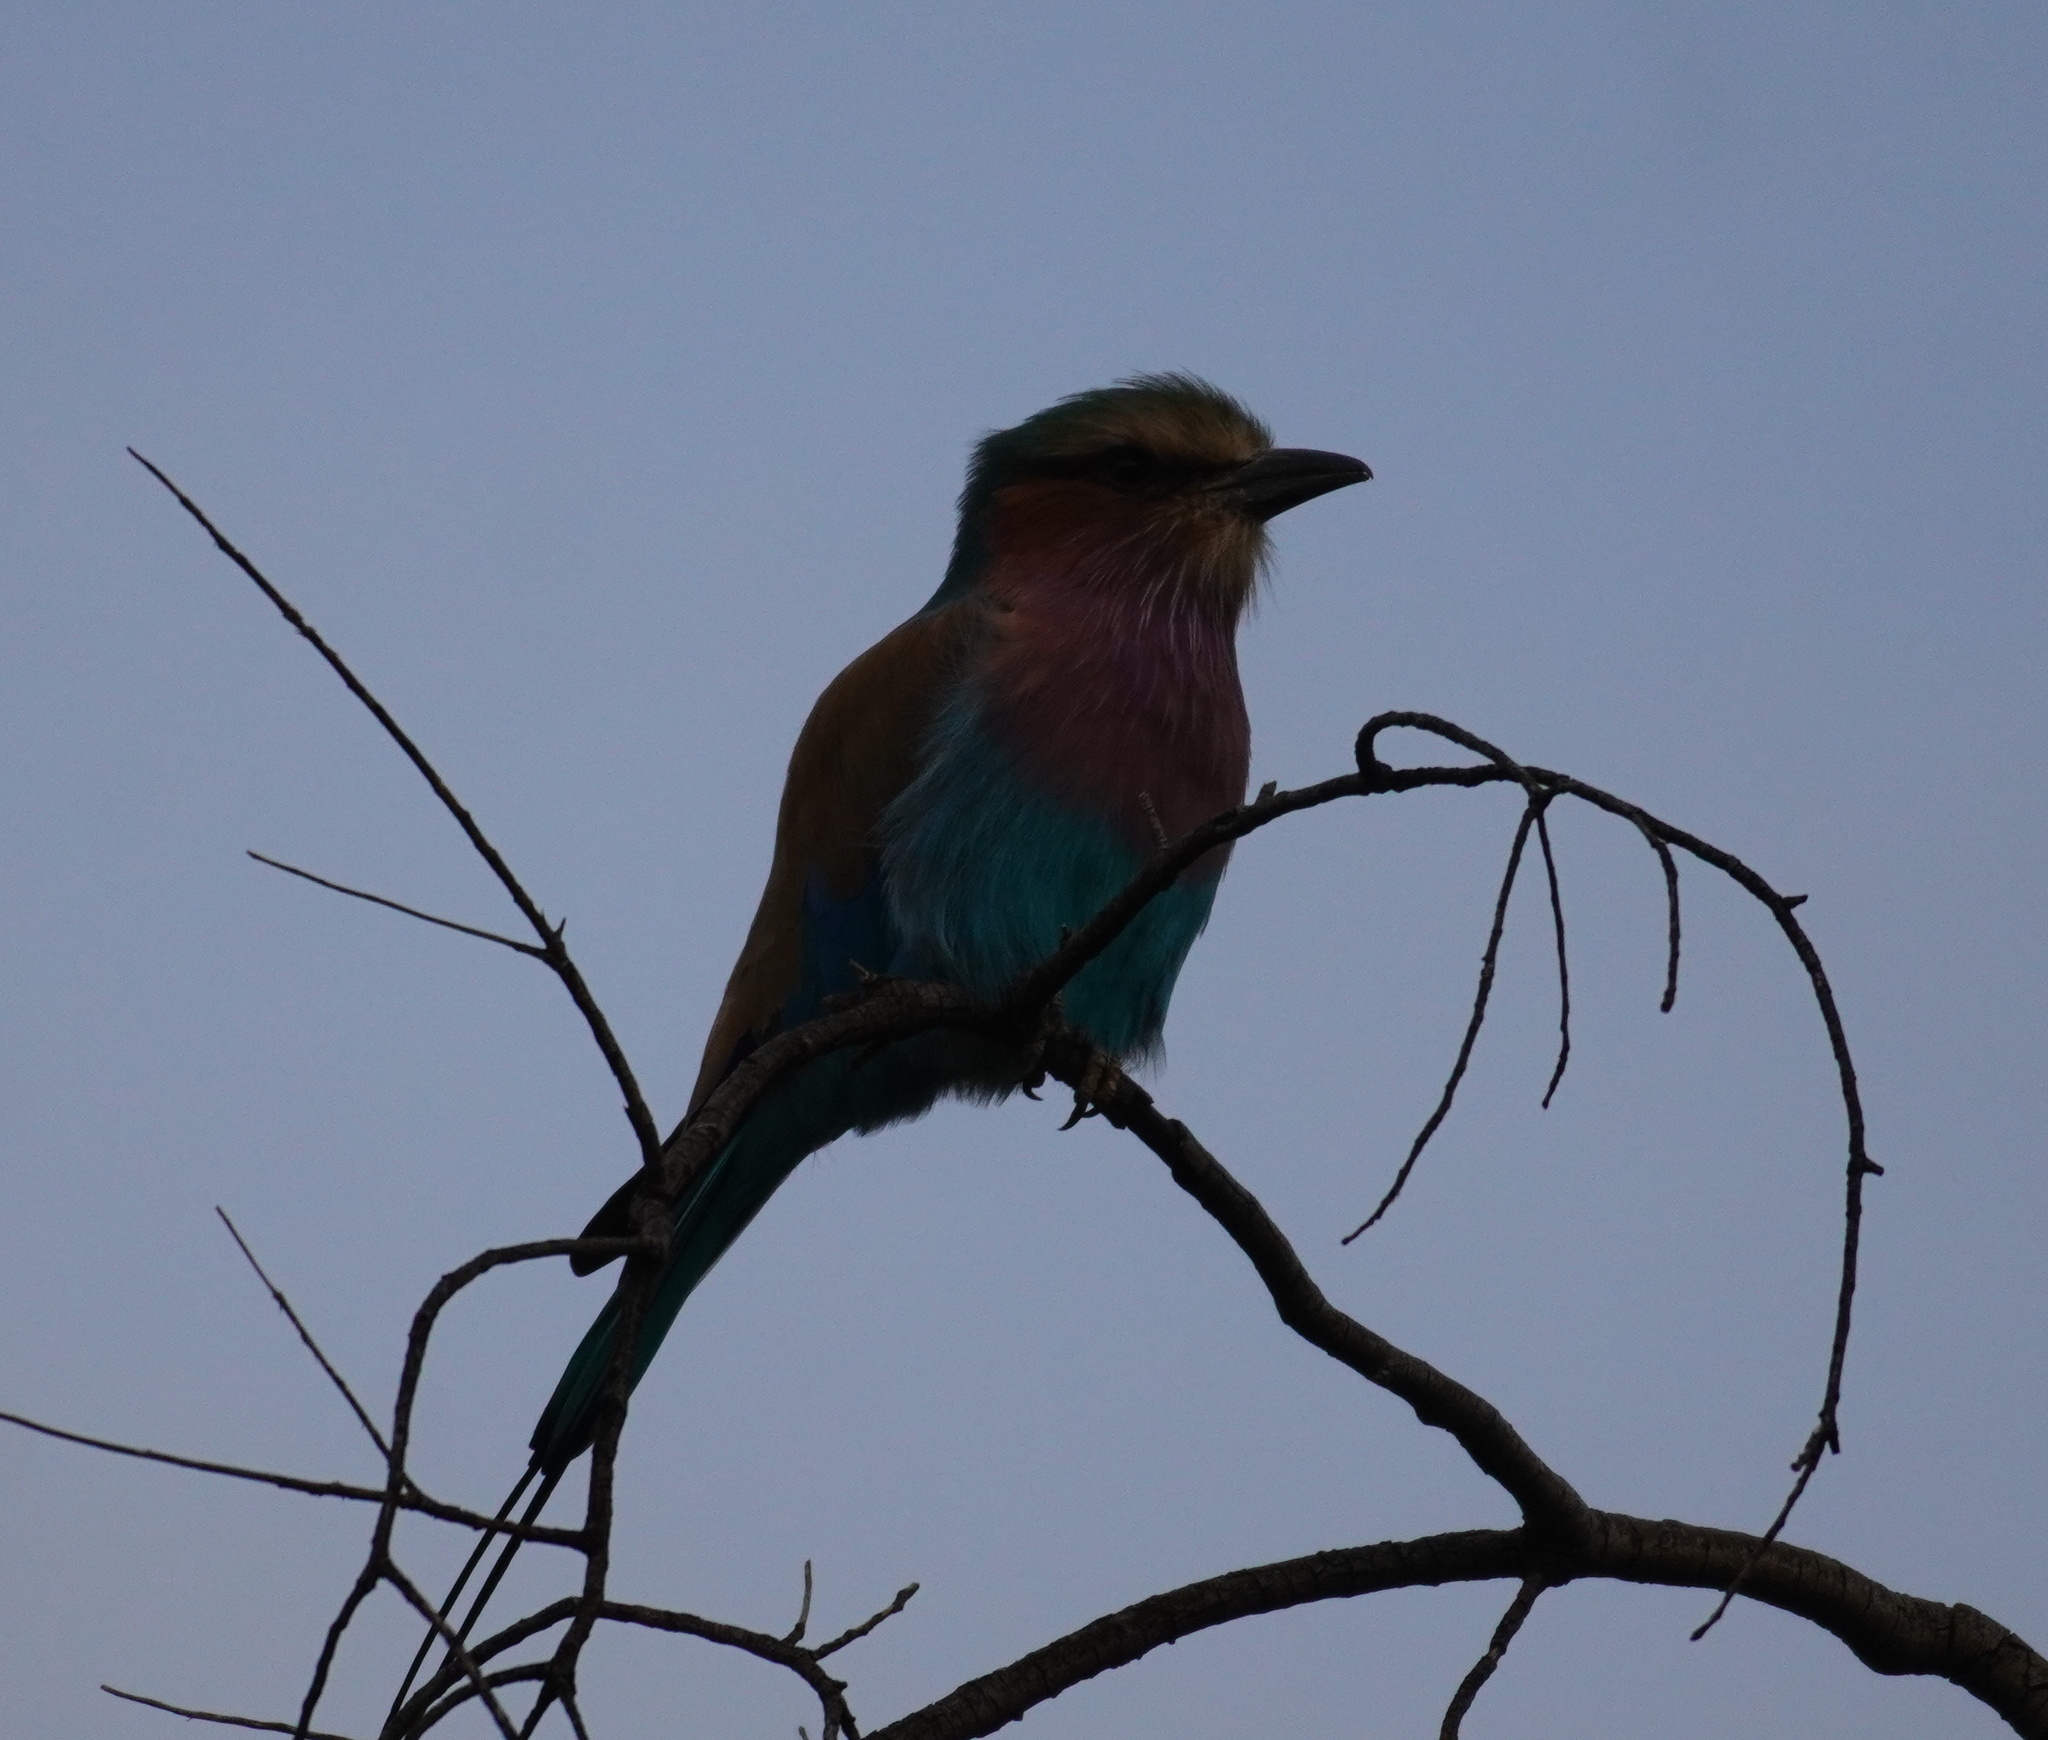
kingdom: Animalia
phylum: Chordata
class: Aves
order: Coraciiformes
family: Coraciidae
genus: Coracias
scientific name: Coracias caudatus
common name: Lilac-breasted roller
